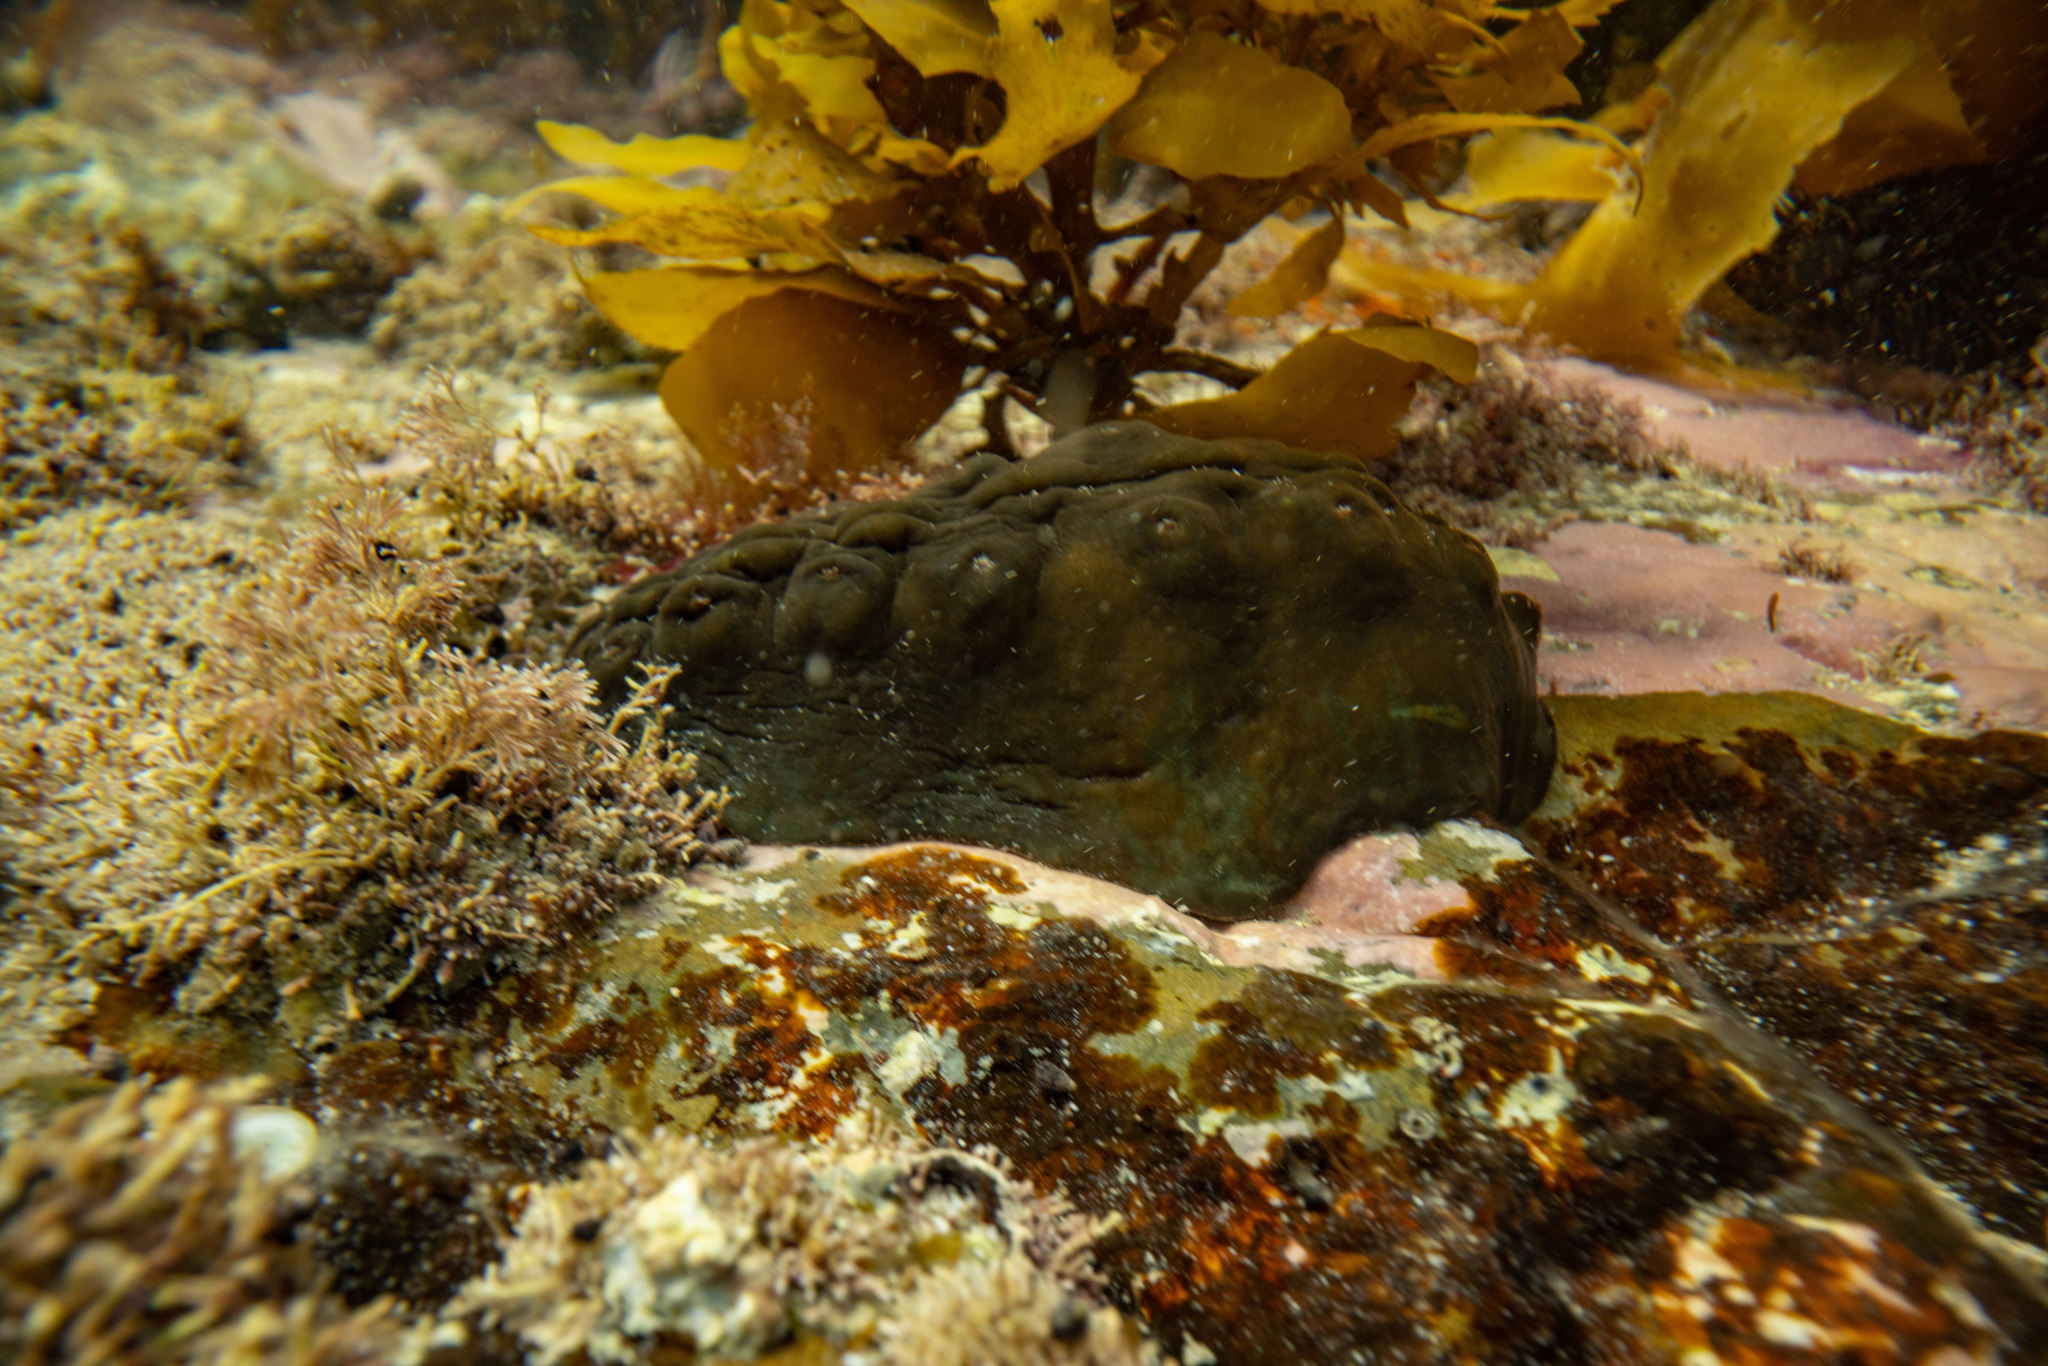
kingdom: Animalia
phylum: Mollusca
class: Polyplacophora
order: Chitonida
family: Acanthochitonidae
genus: Cryptoconchus
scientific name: Cryptoconchus porosus
